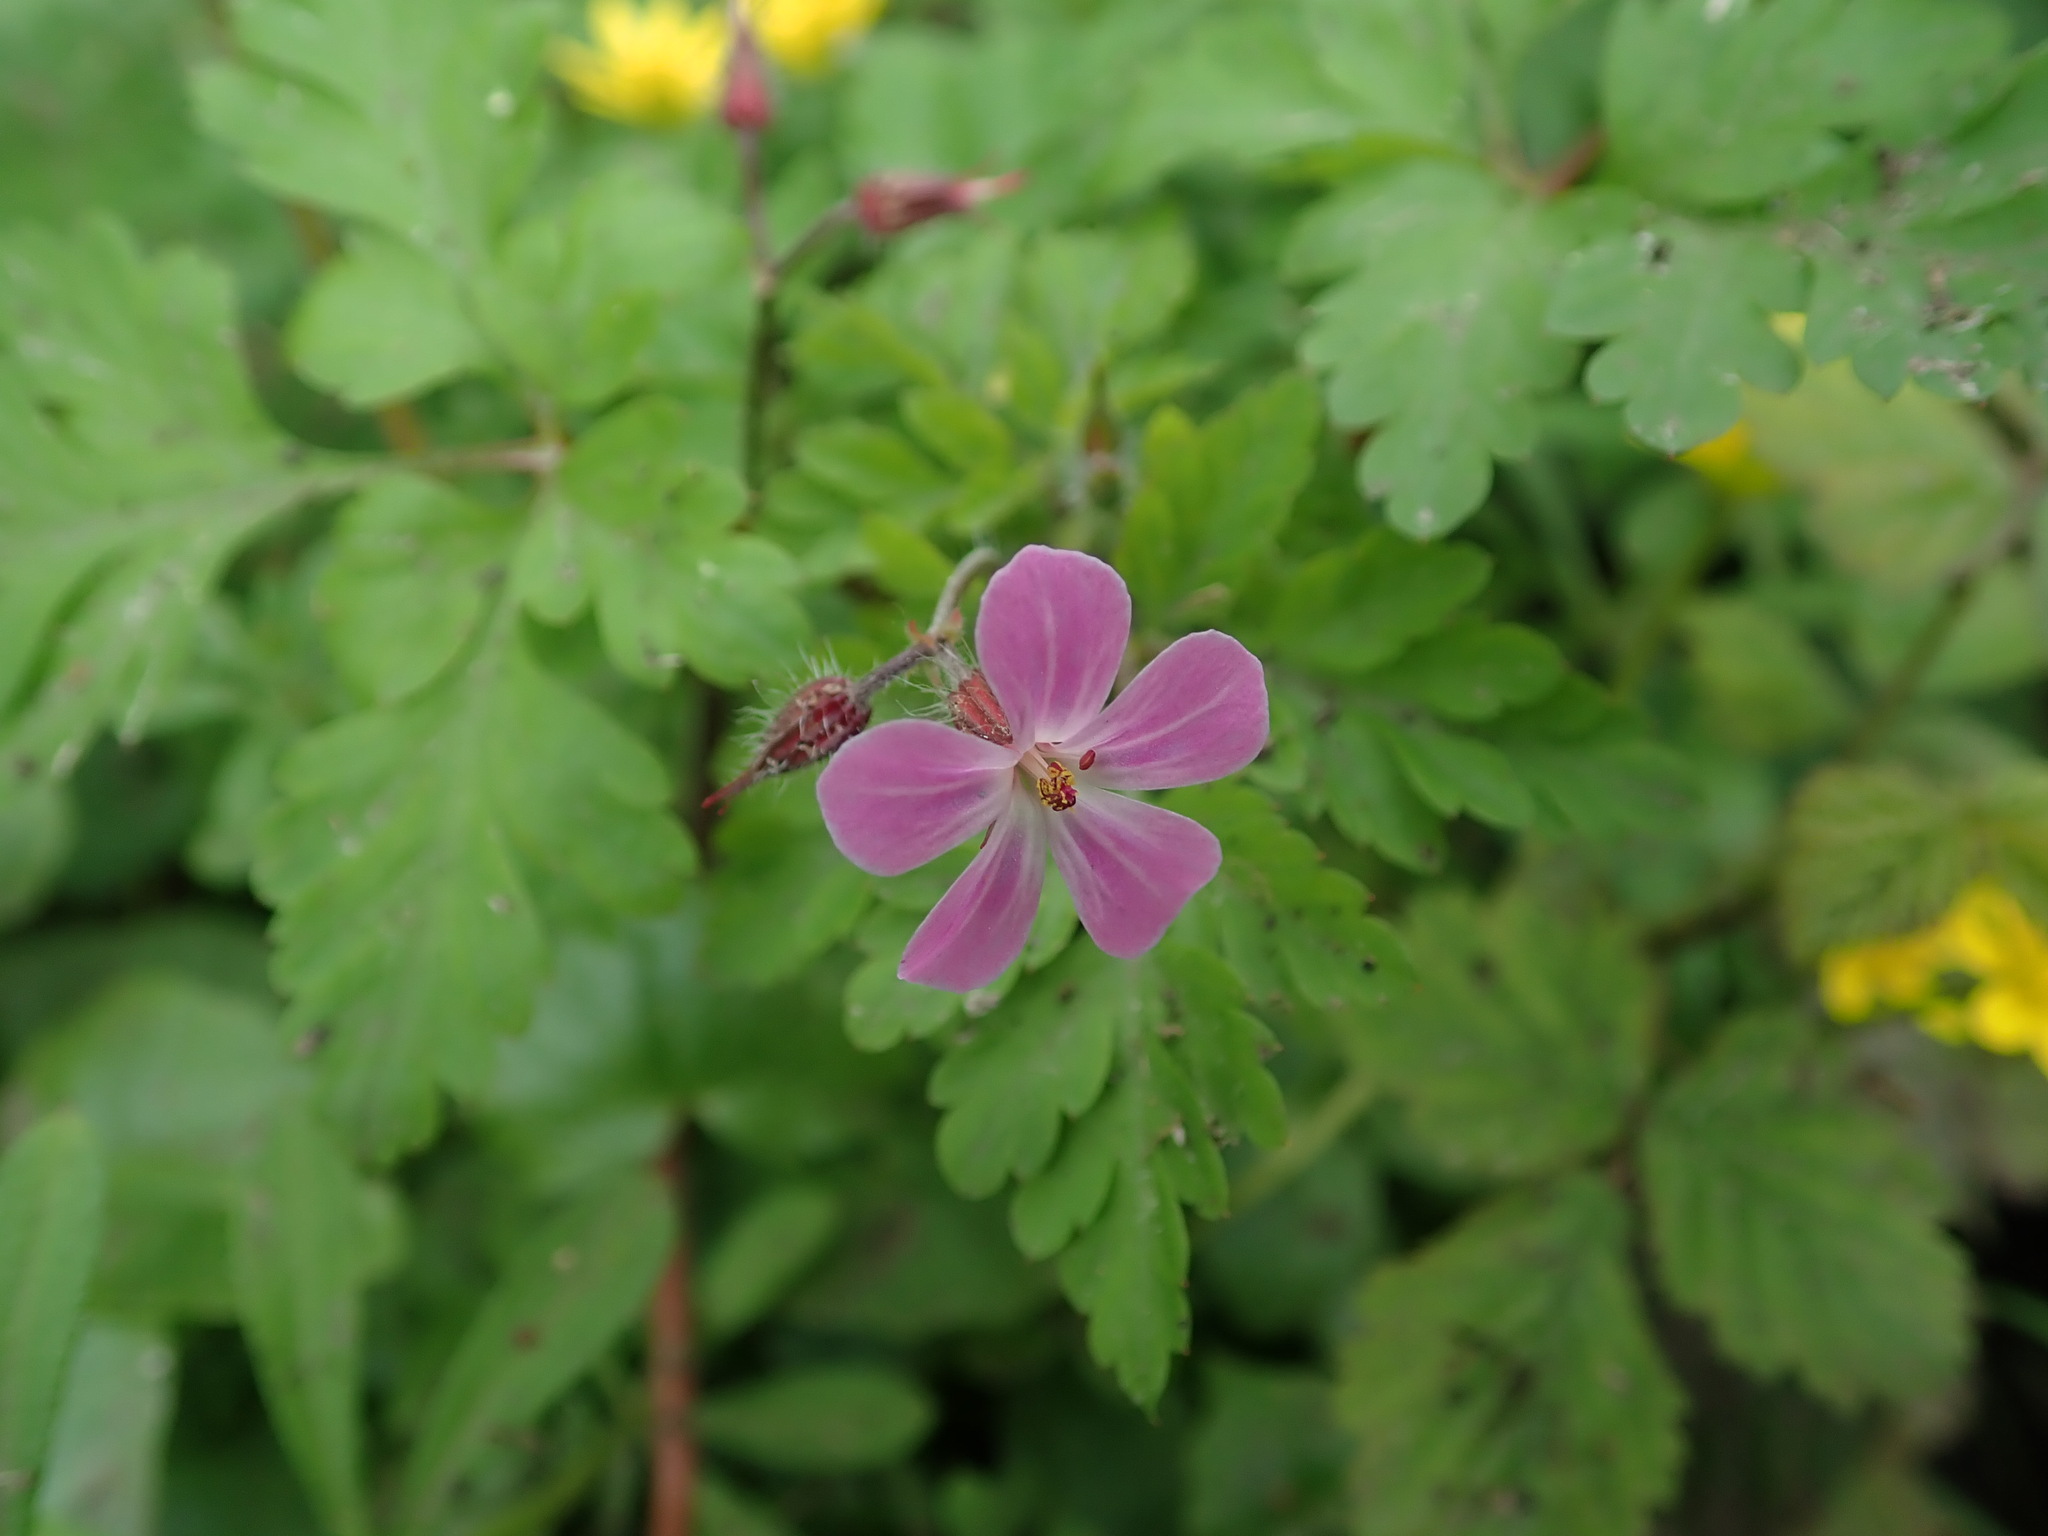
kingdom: Plantae
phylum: Tracheophyta
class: Magnoliopsida
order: Geraniales
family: Geraniaceae
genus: Geranium
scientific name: Geranium robertianum
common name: Herb-robert
